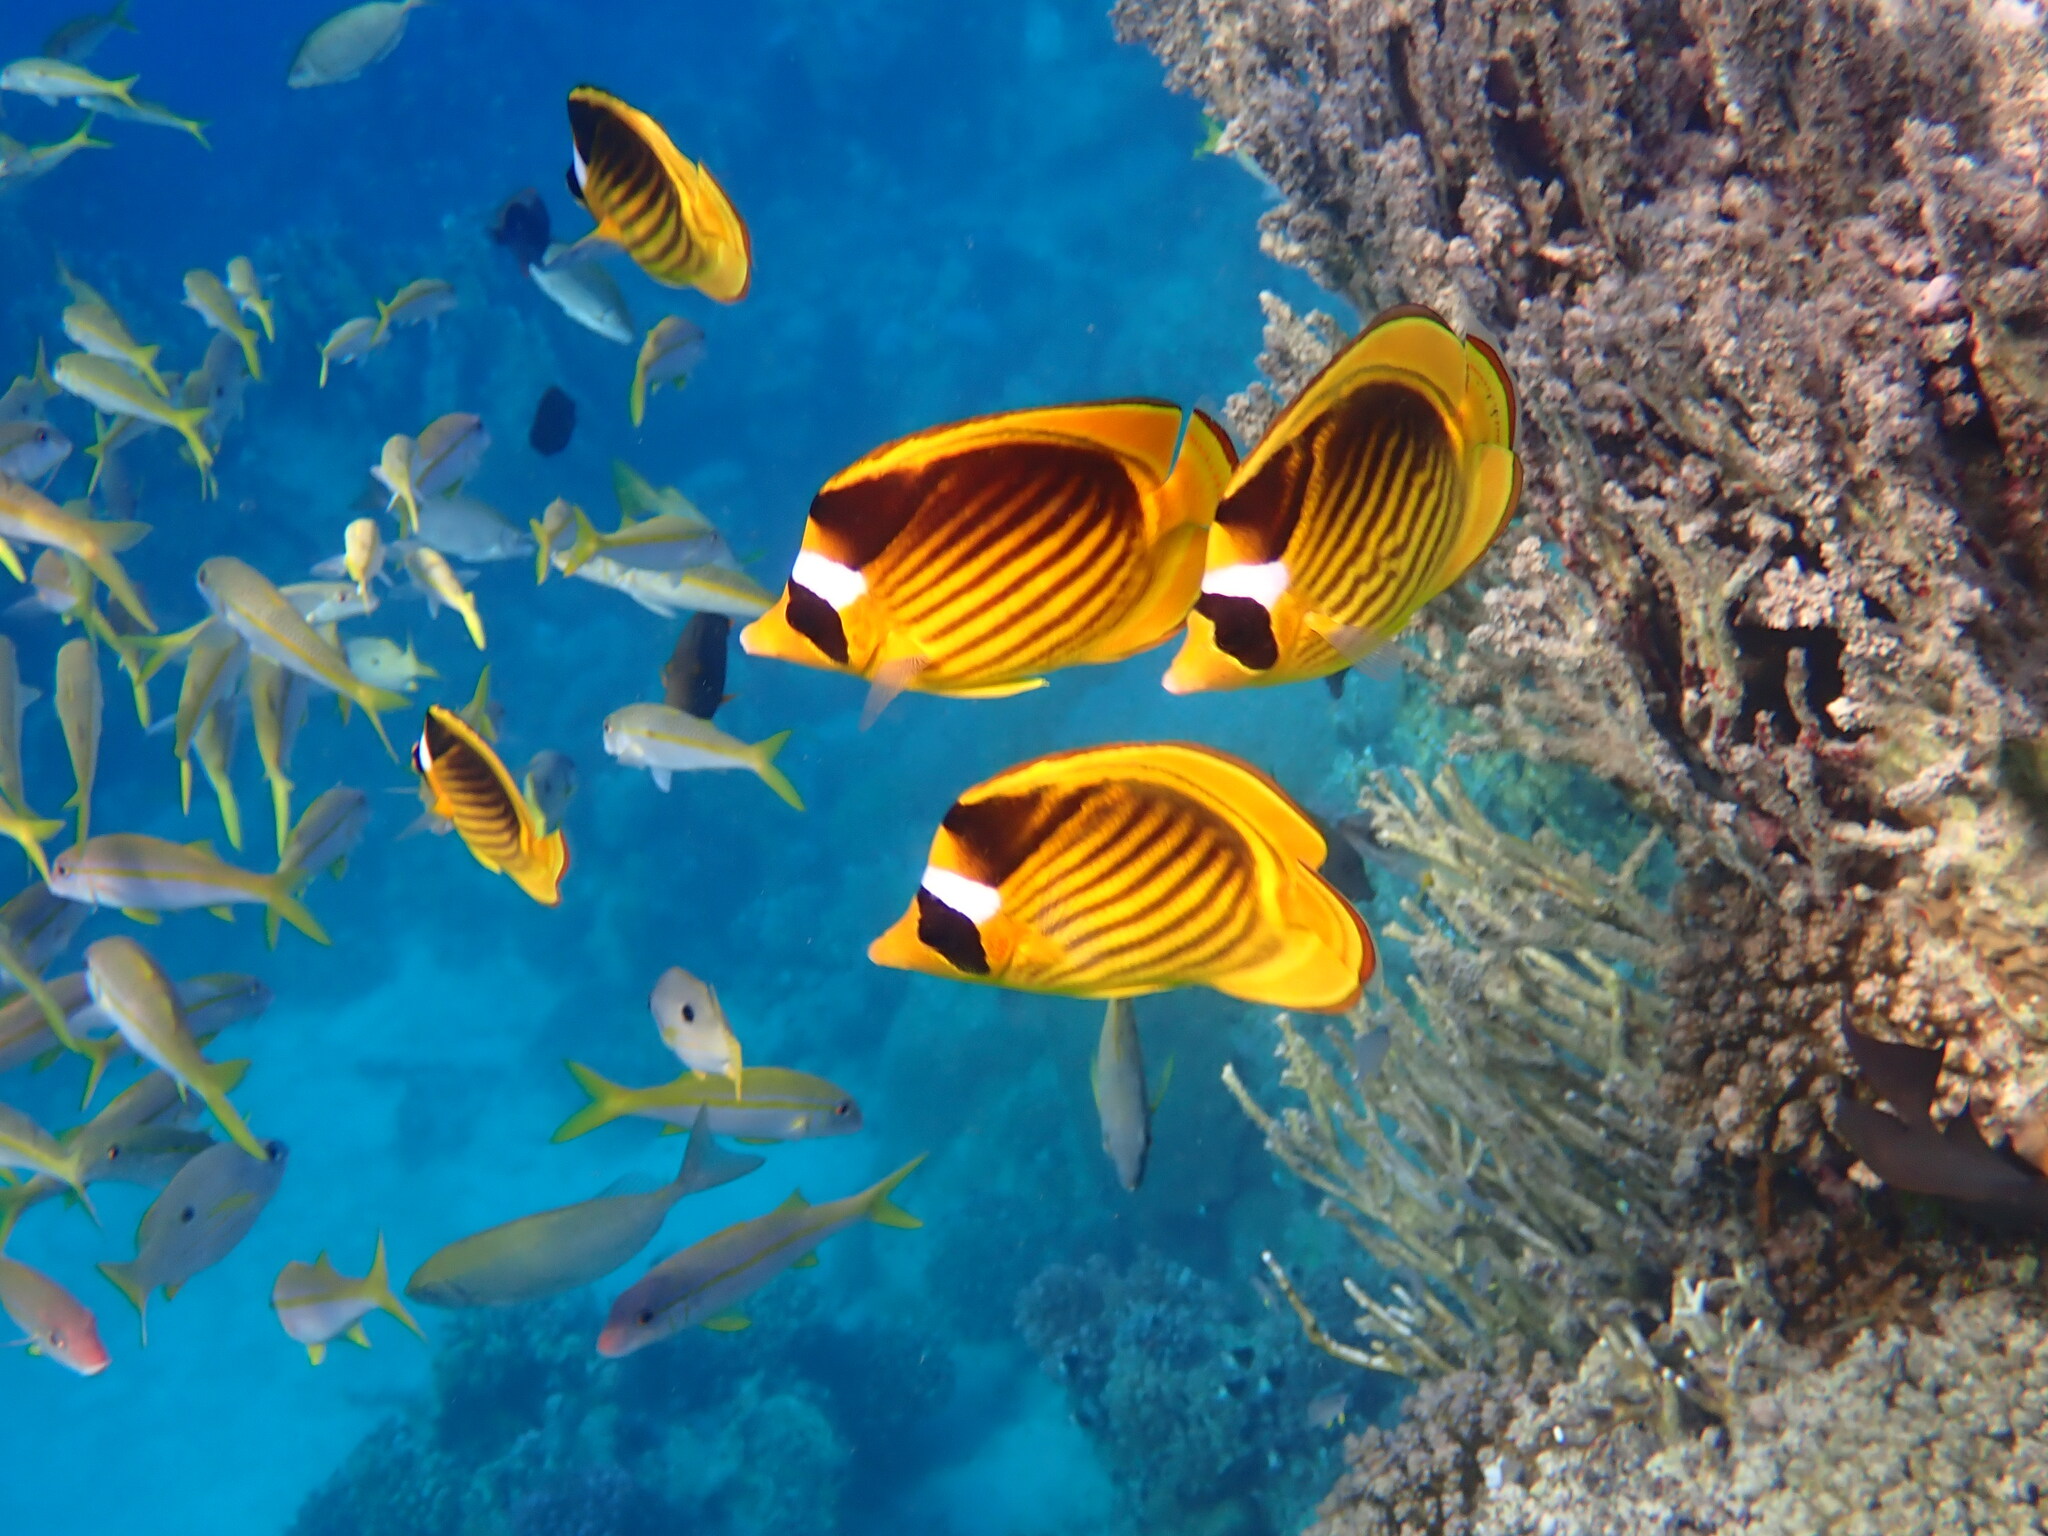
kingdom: Animalia
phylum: Chordata
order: Perciformes
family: Chaetodontidae
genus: Chaetodon
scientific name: Chaetodon fasciatus
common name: Diagonal butterflyfish
